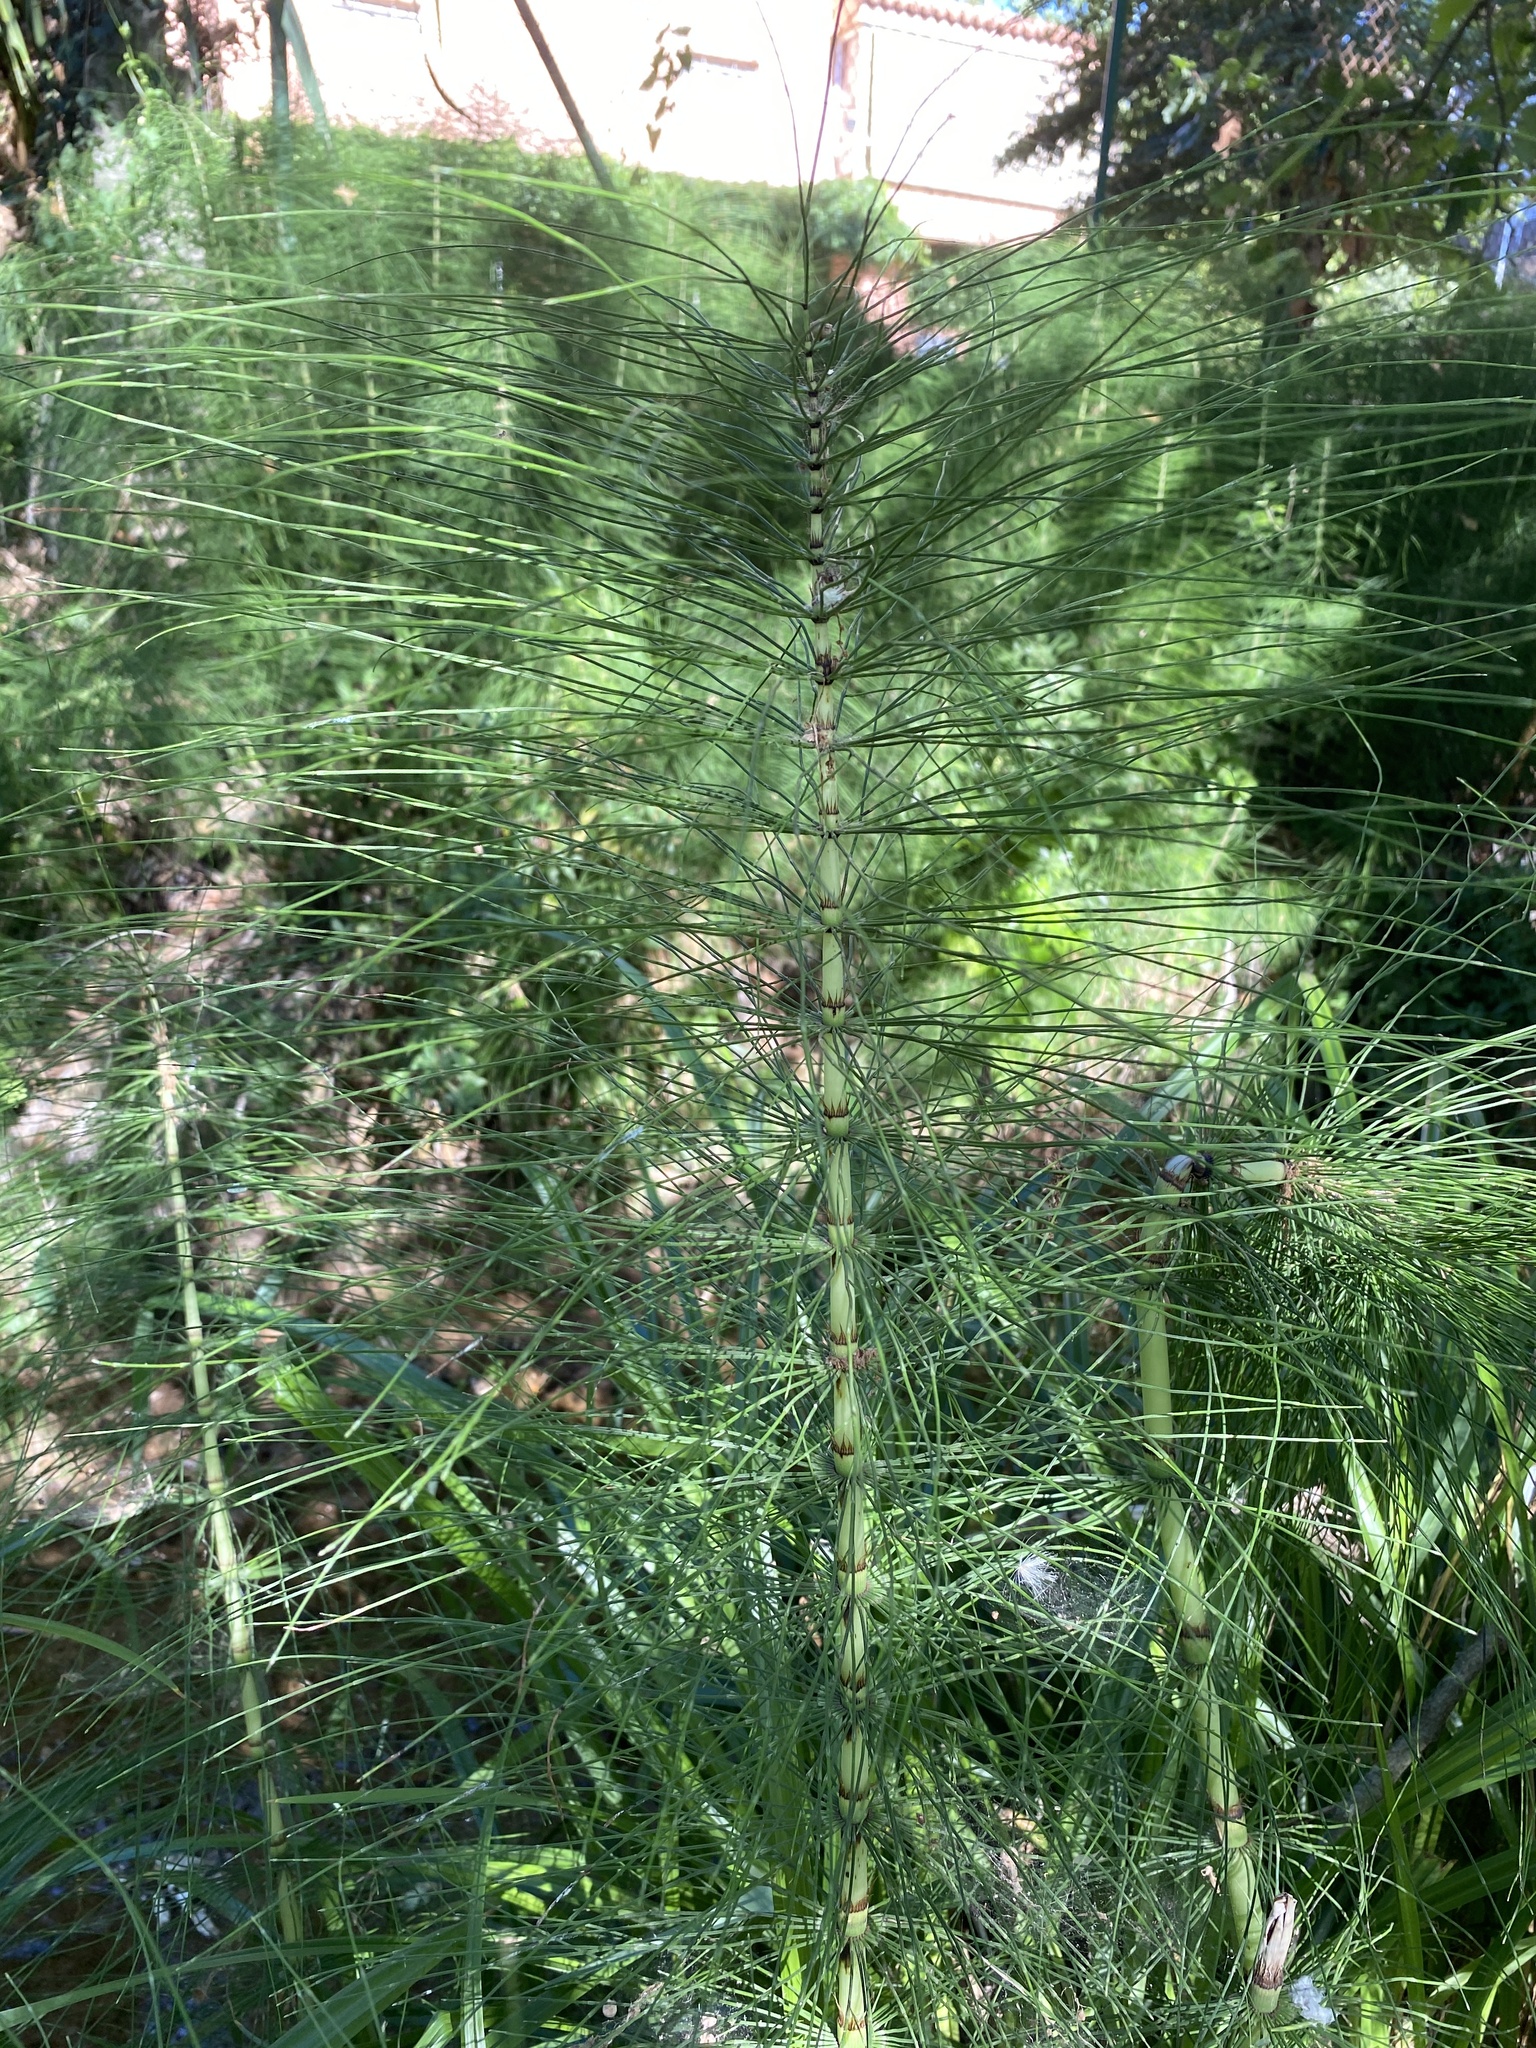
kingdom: Plantae
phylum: Tracheophyta
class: Polypodiopsida
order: Equisetales
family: Equisetaceae
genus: Equisetum
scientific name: Equisetum telmateia
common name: Great horsetail
